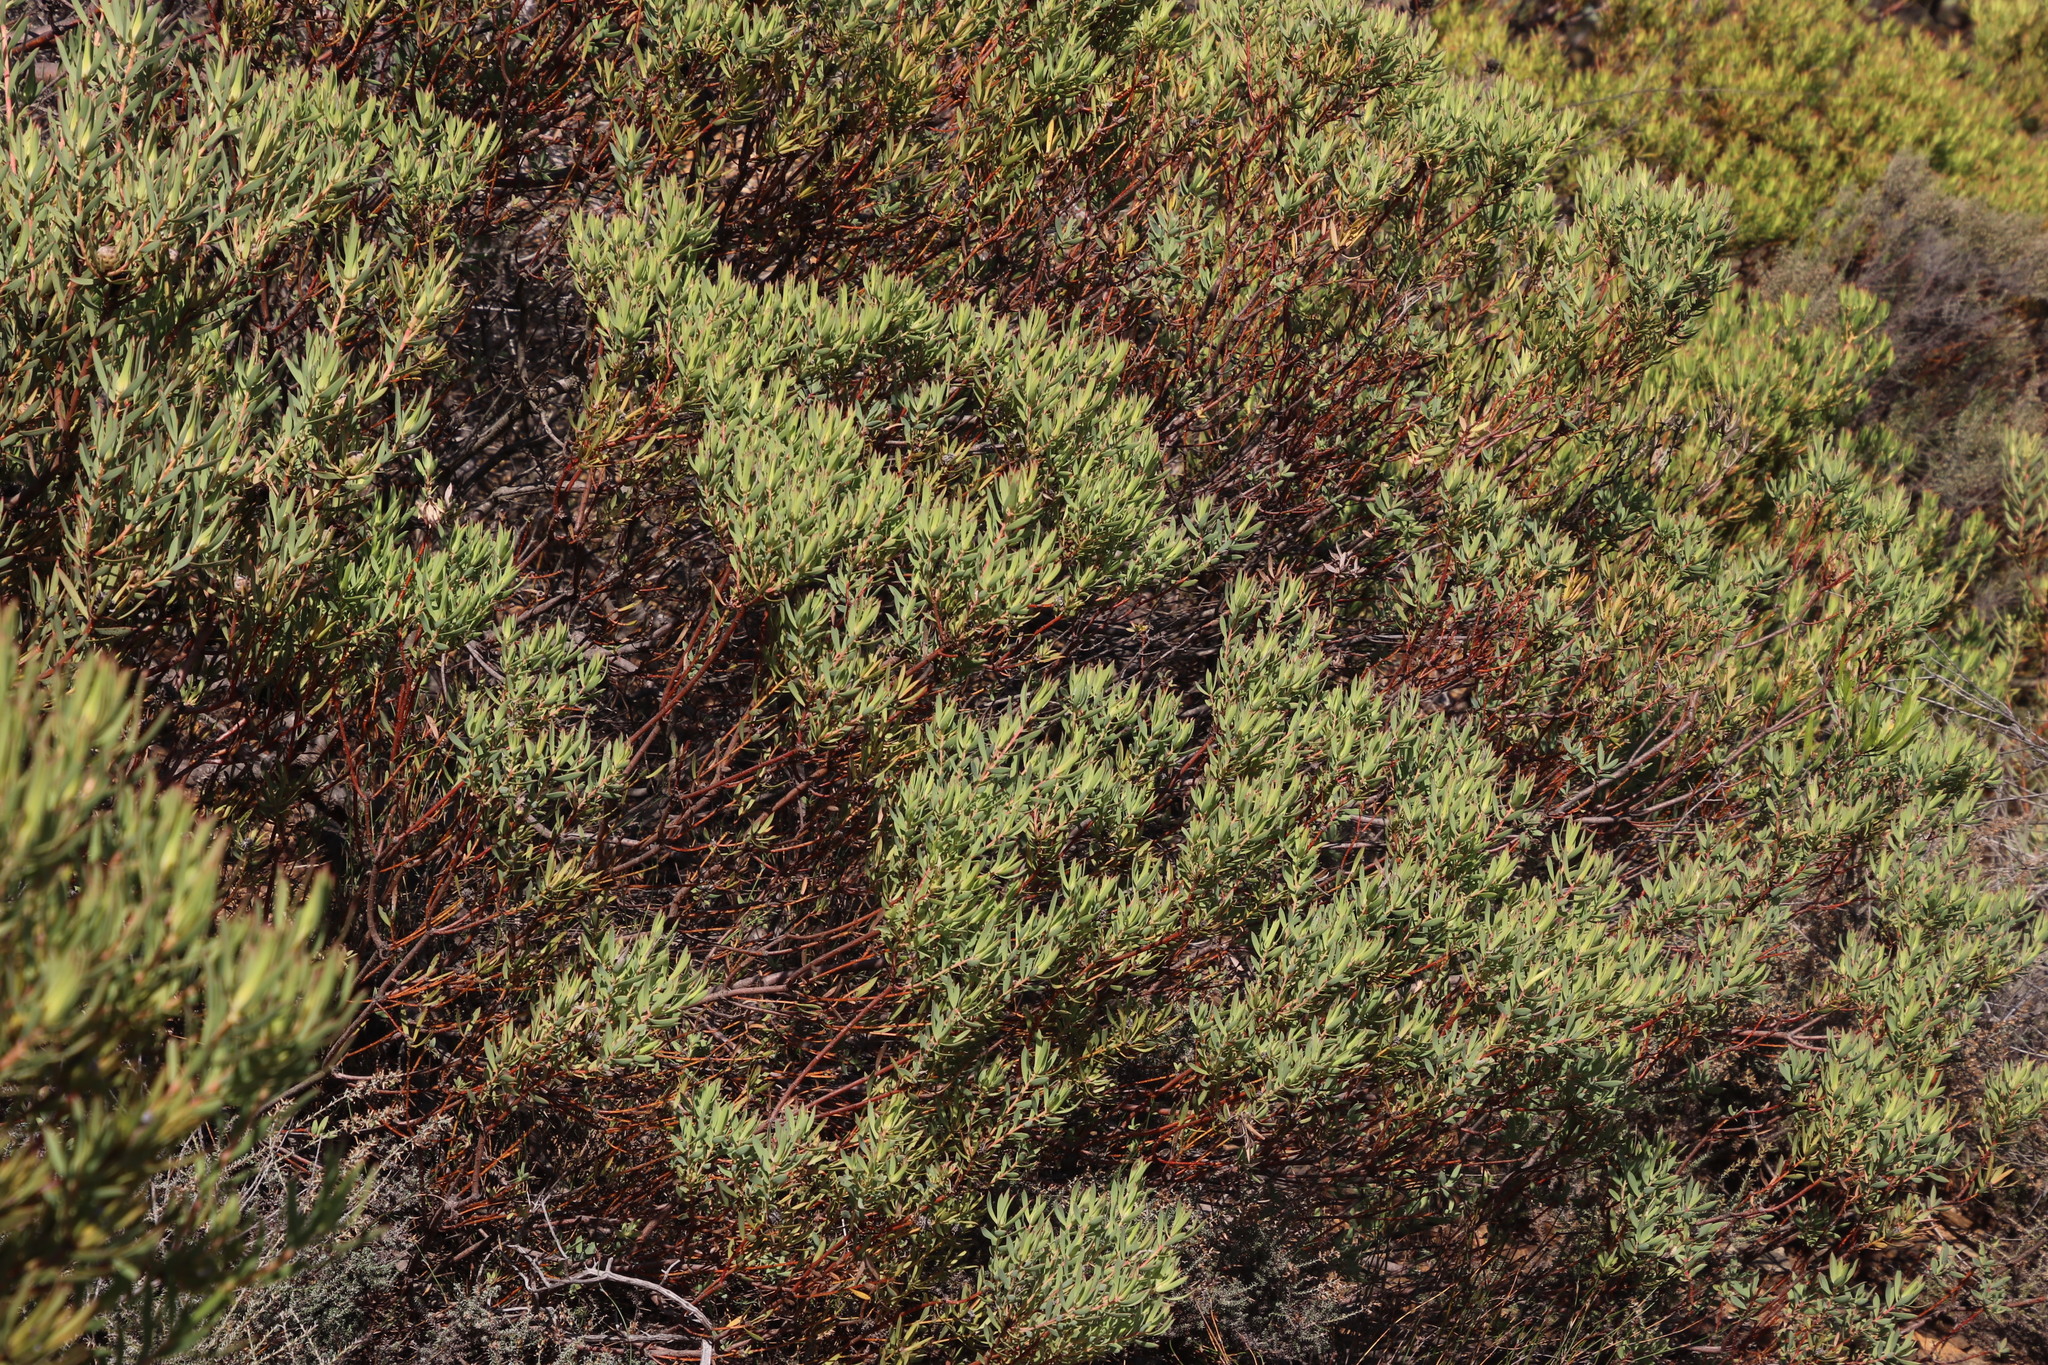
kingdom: Plantae
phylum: Tracheophyta
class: Magnoliopsida
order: Proteales
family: Proteaceae
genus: Leucadendron
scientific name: Leucadendron lanigerum
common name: Shale conebush
